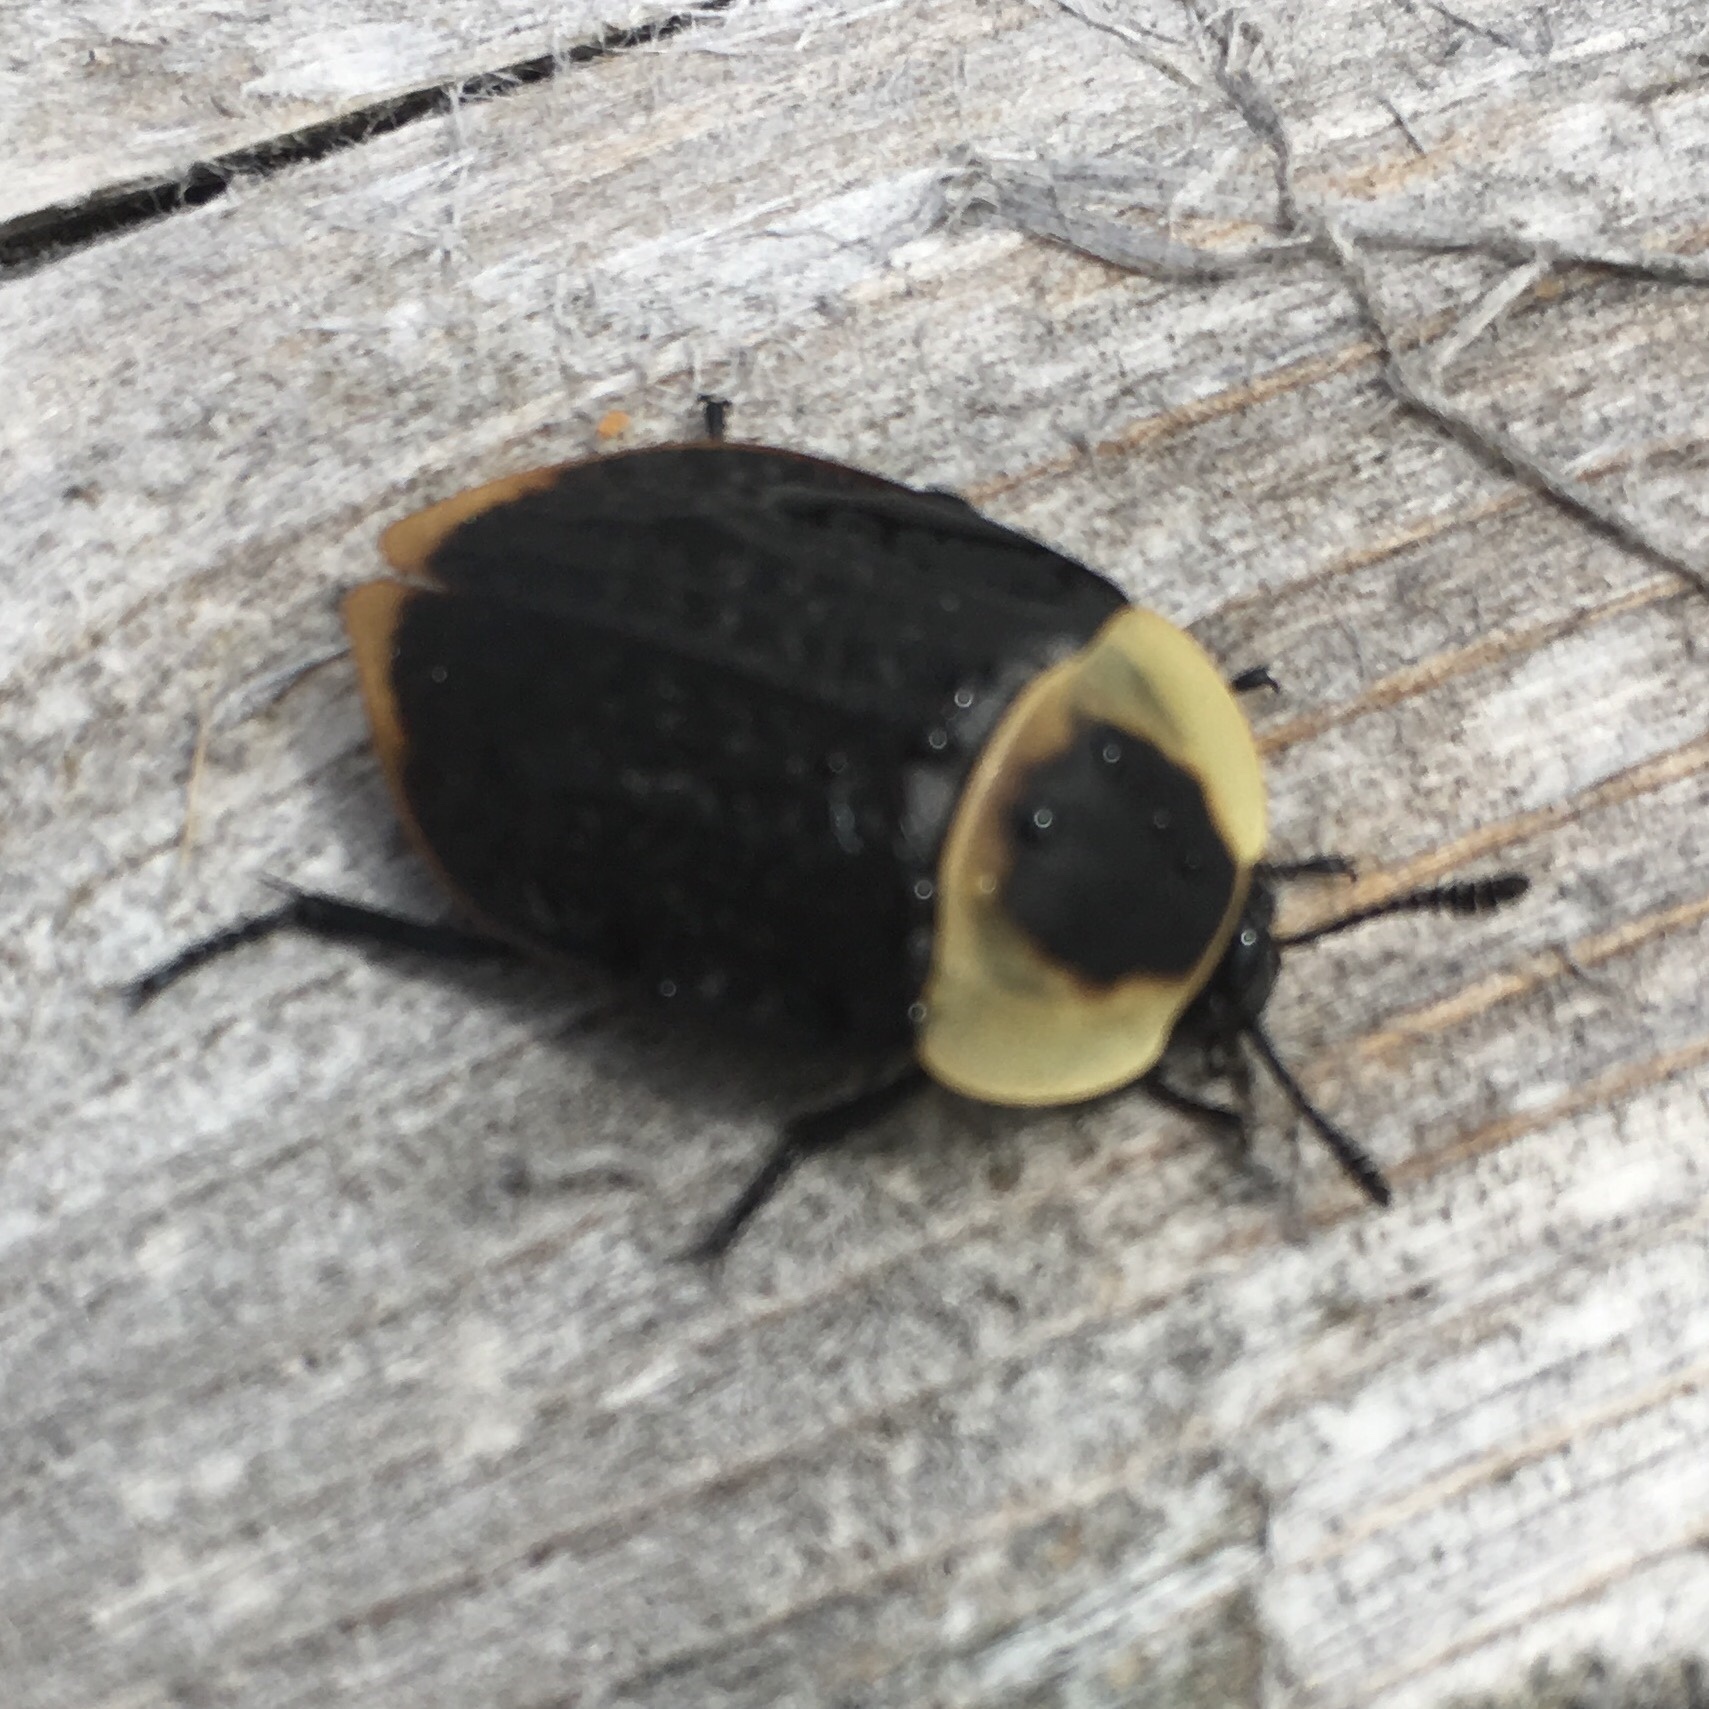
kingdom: Animalia
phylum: Arthropoda
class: Insecta
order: Coleoptera
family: Staphylinidae
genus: Necrophila
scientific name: Necrophila americana
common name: American carrion beetle
